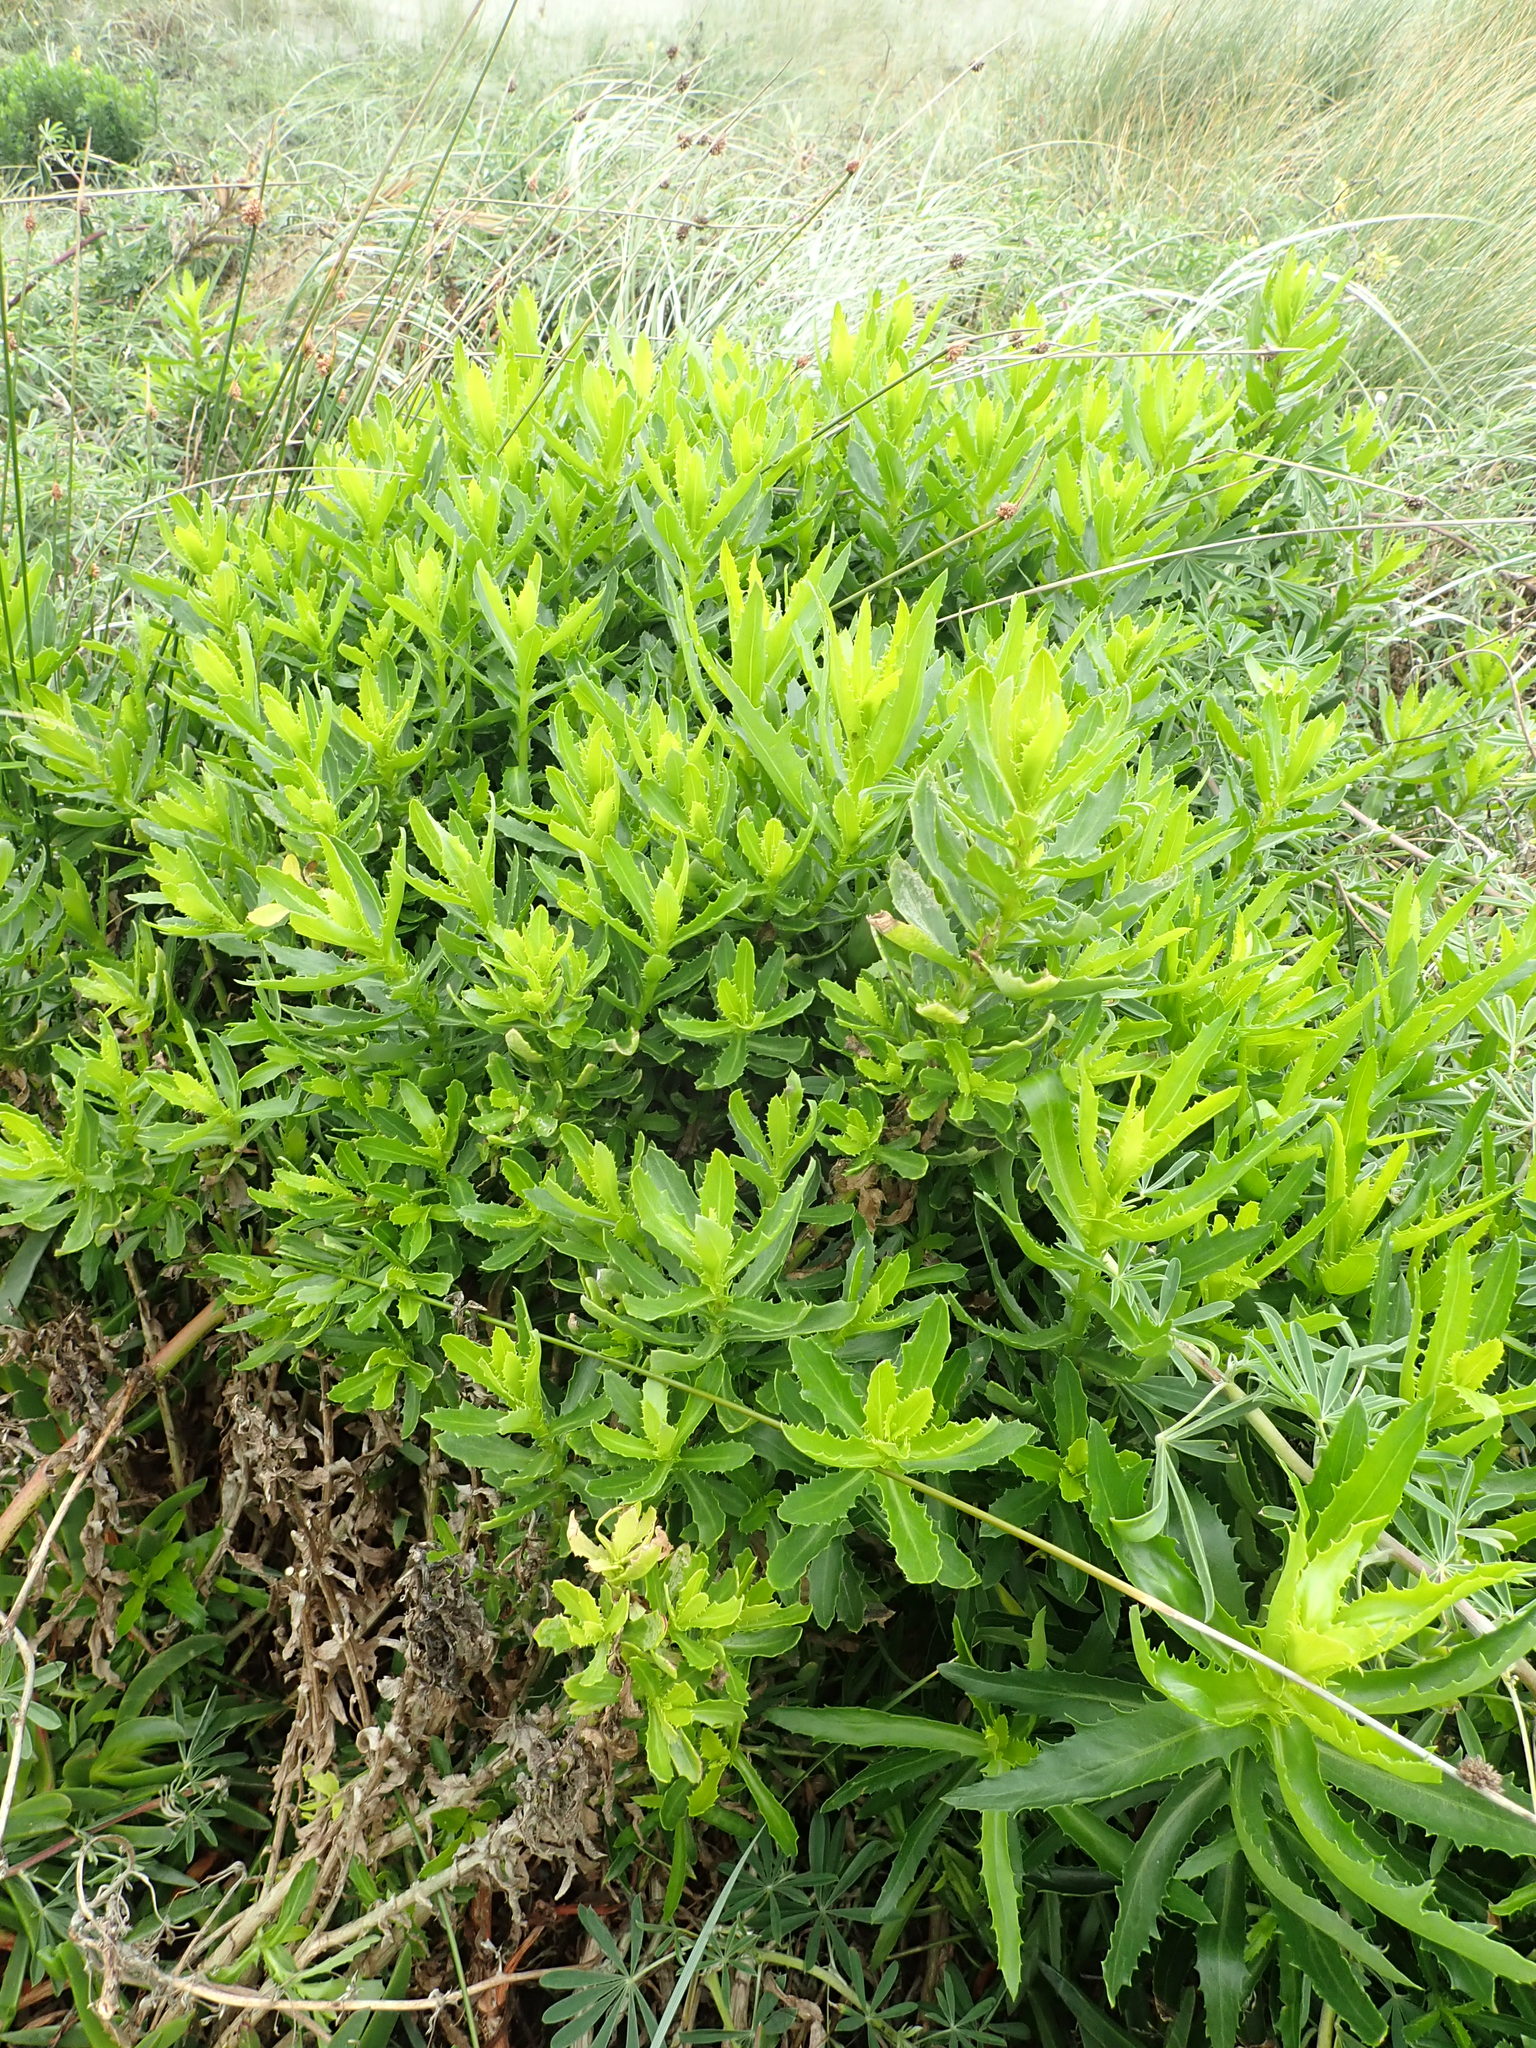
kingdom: Plantae
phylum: Tracheophyta
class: Magnoliopsida
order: Asterales
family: Asteraceae
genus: Senecio
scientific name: Senecio glastifolius
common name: Woad-leaved ragwort
